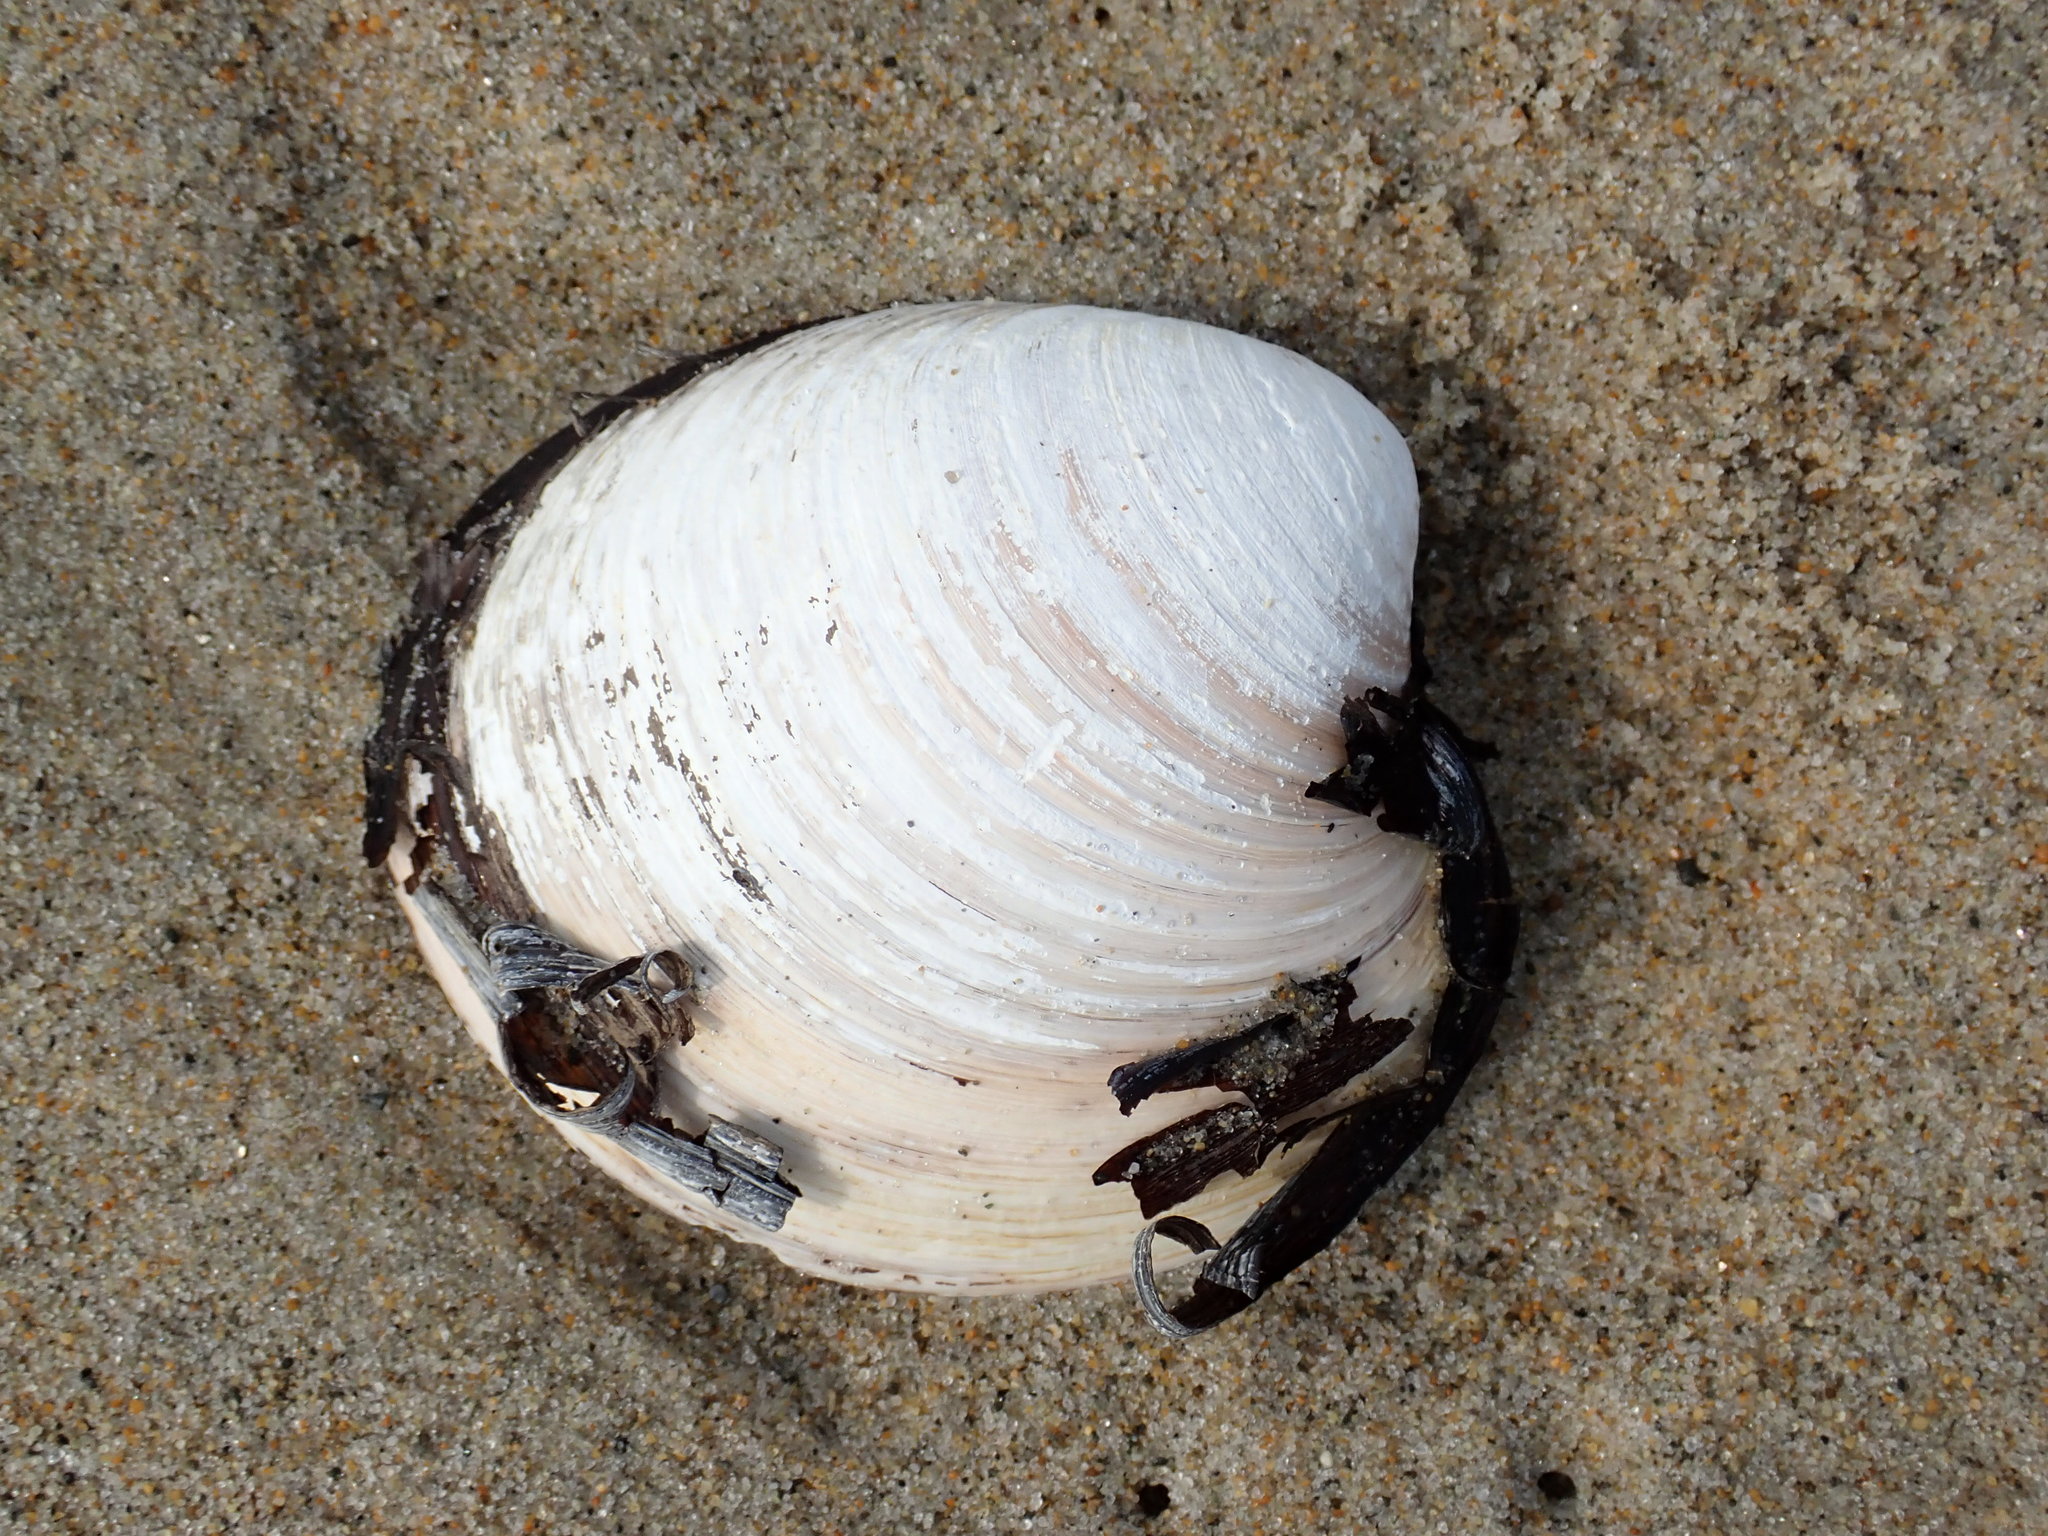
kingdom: Animalia
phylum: Mollusca
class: Bivalvia
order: Venerida
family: Arcticidae
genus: Arctica
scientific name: Arctica islandica
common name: Icelandic cyprine
